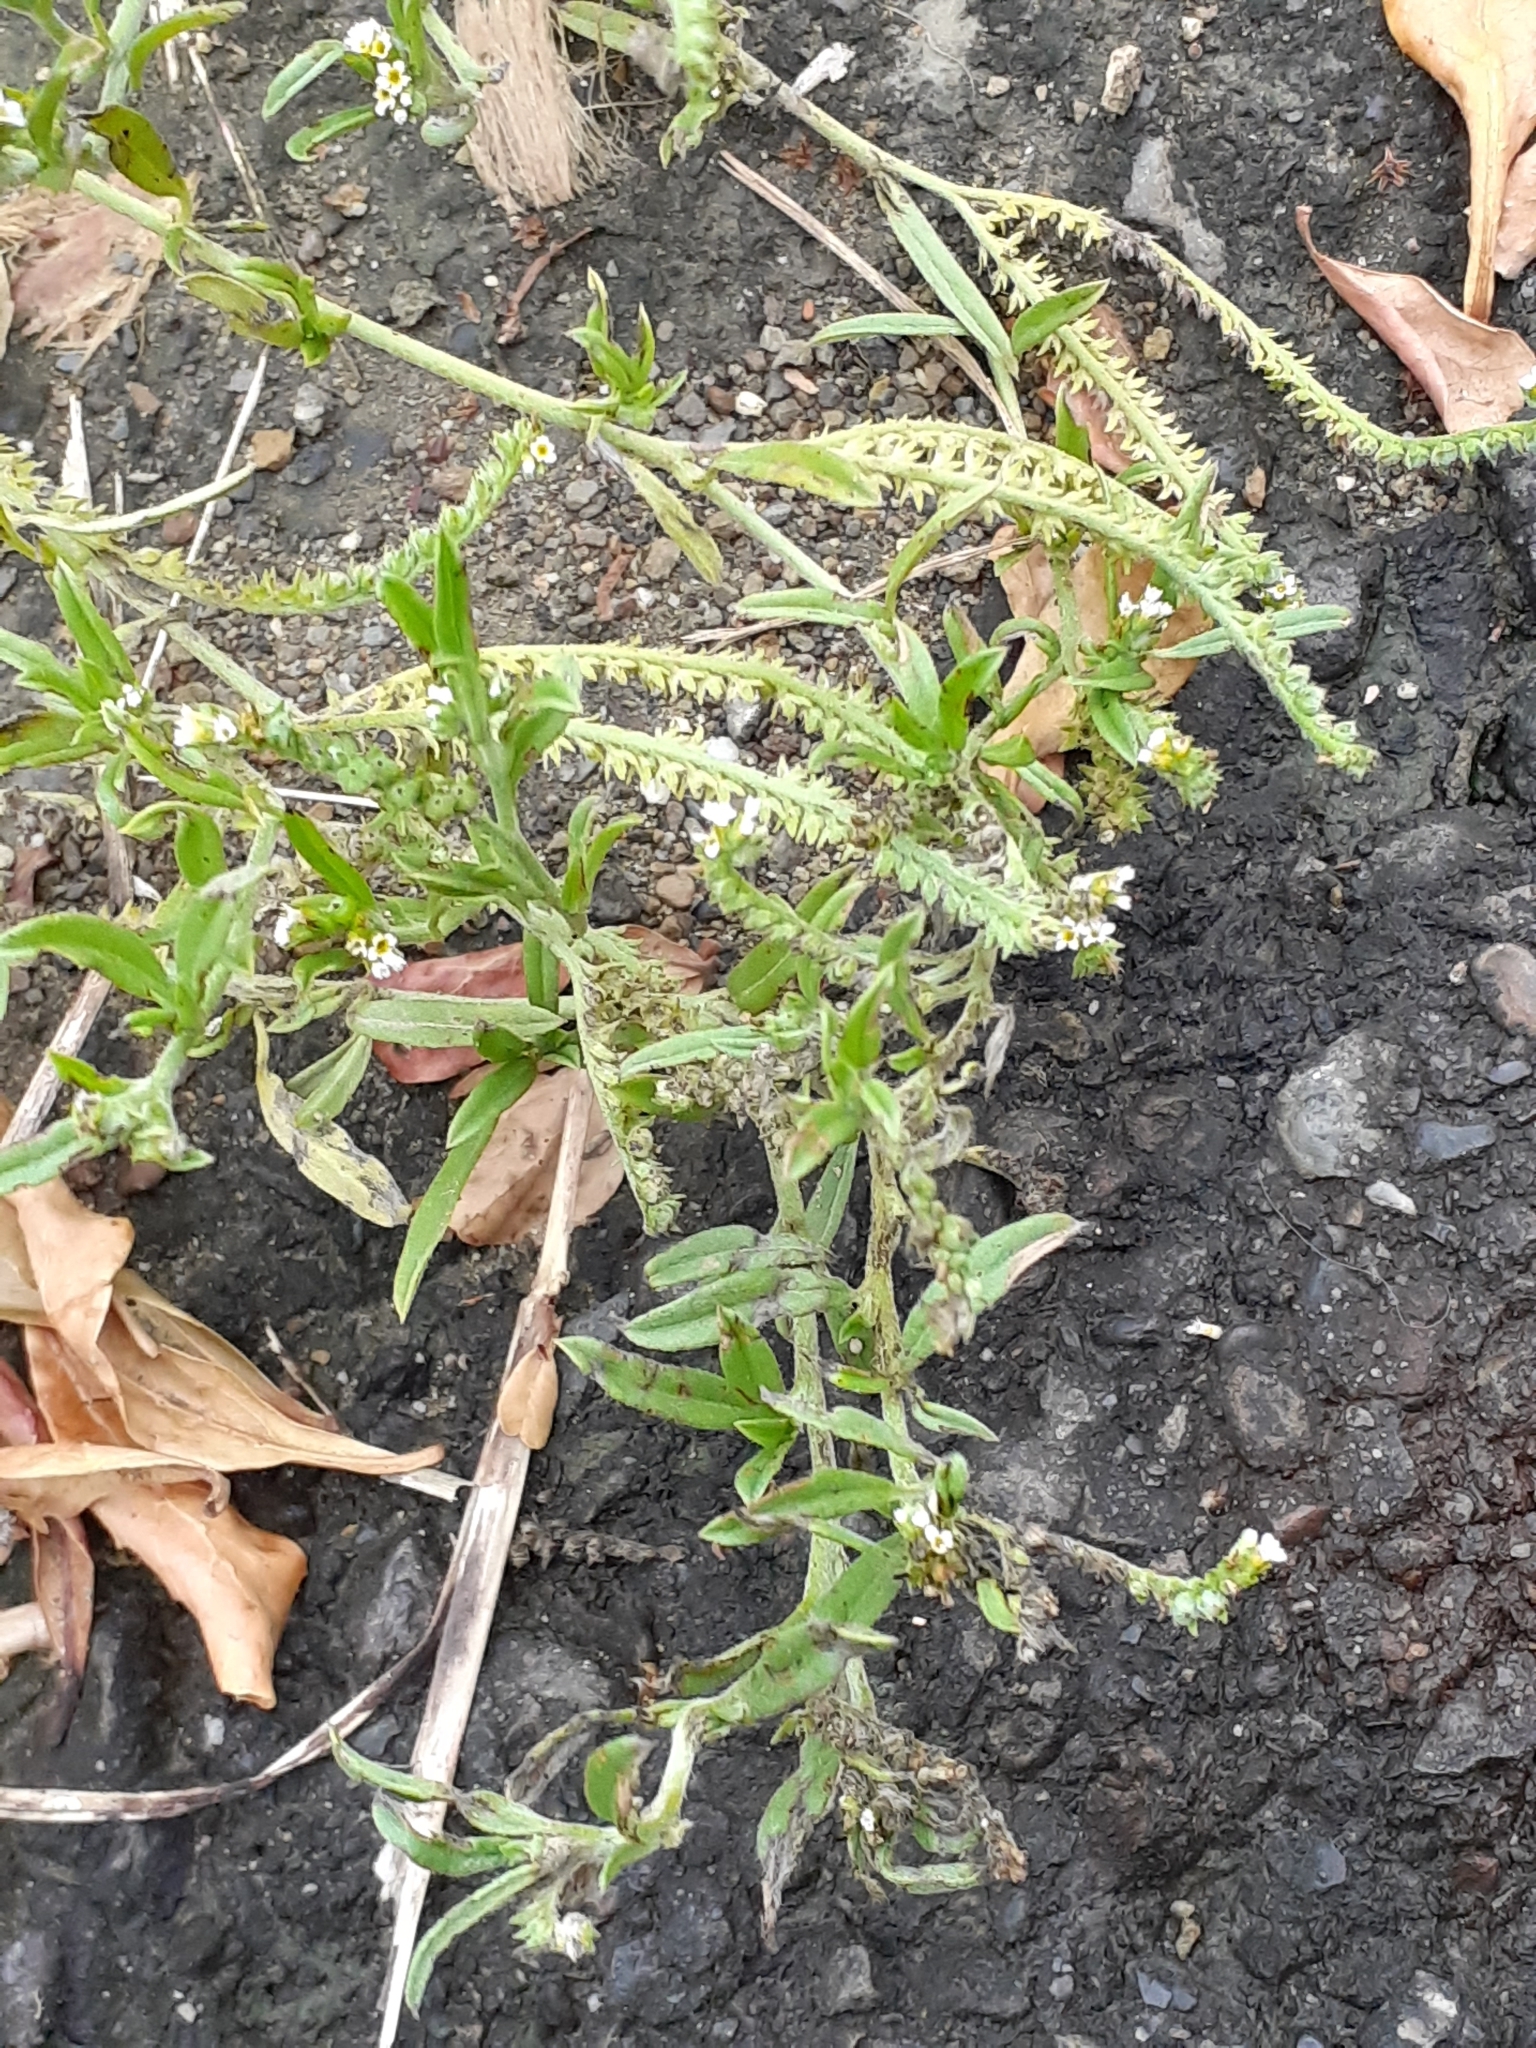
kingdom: Plantae
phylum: Tracheophyta
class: Magnoliopsida
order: Boraginales
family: Heliotropiaceae
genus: Euploca
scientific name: Euploca procumbens
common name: Fourspike heliotrope
